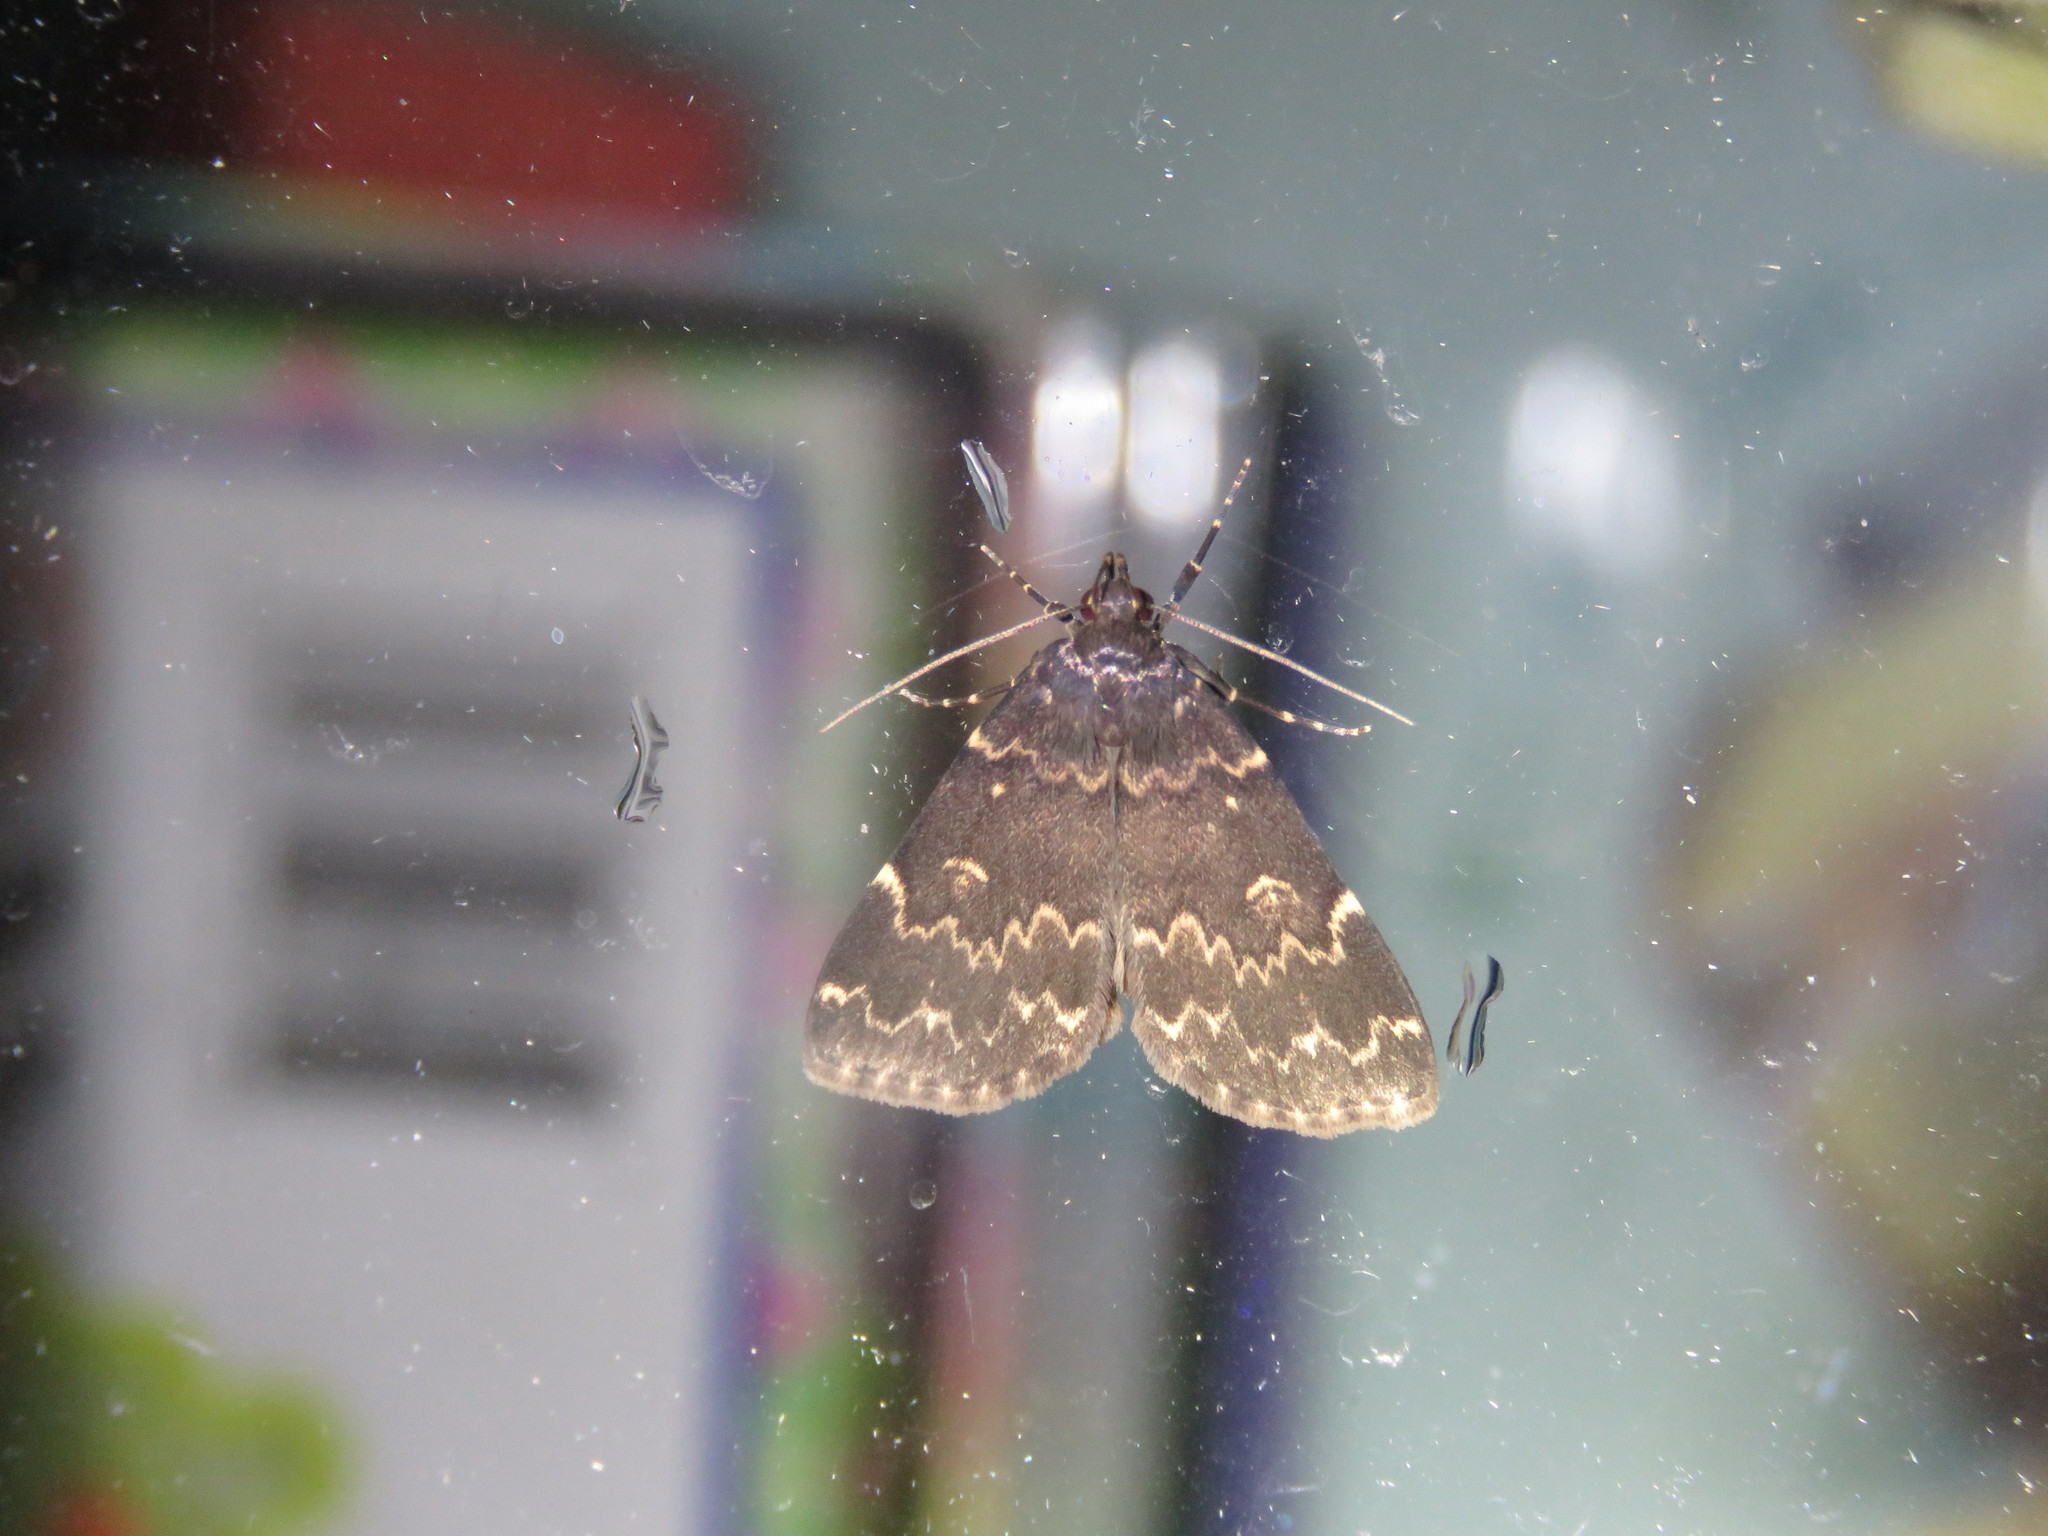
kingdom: Animalia
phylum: Arthropoda
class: Insecta
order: Lepidoptera
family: Erebidae
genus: Idia
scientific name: Idia lubricalis
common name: Twin-striped tabby
